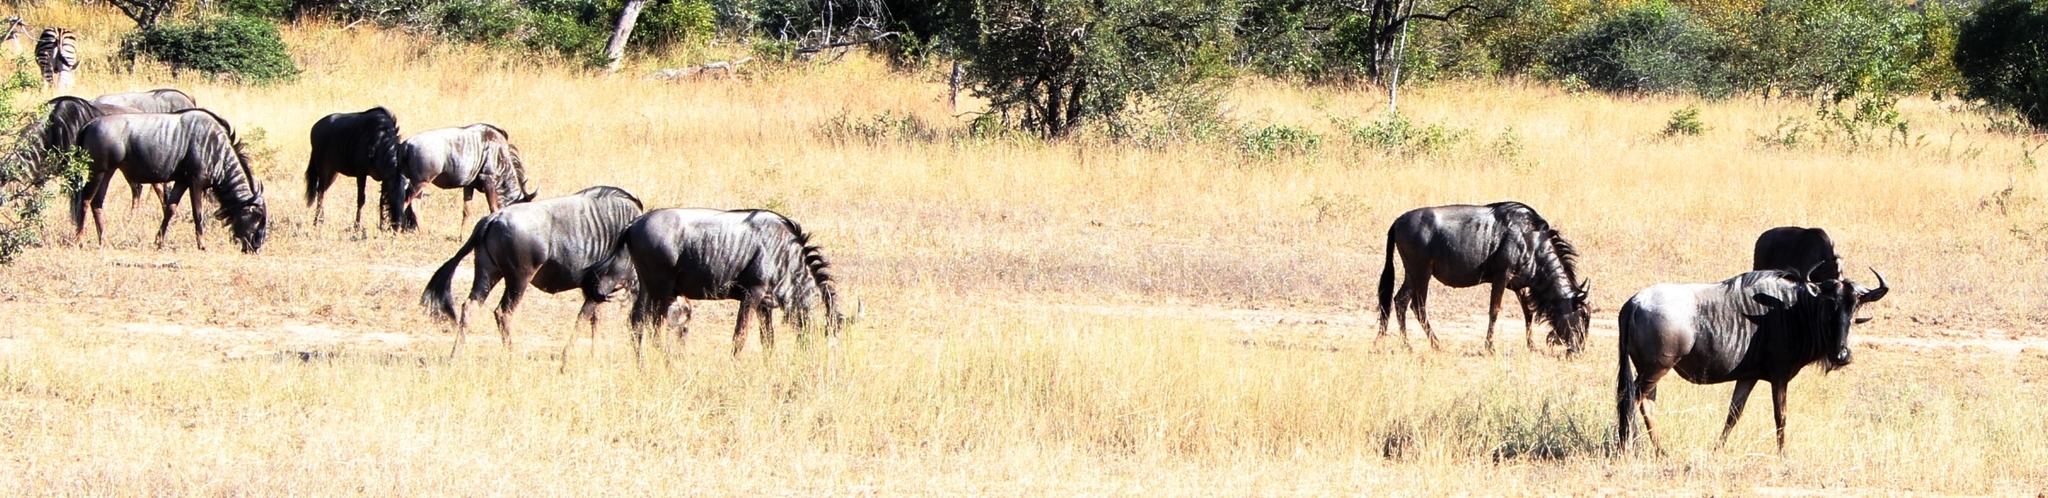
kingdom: Animalia
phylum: Chordata
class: Mammalia
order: Artiodactyla
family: Bovidae
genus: Connochaetes
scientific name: Connochaetes taurinus
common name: Blue wildebeest
